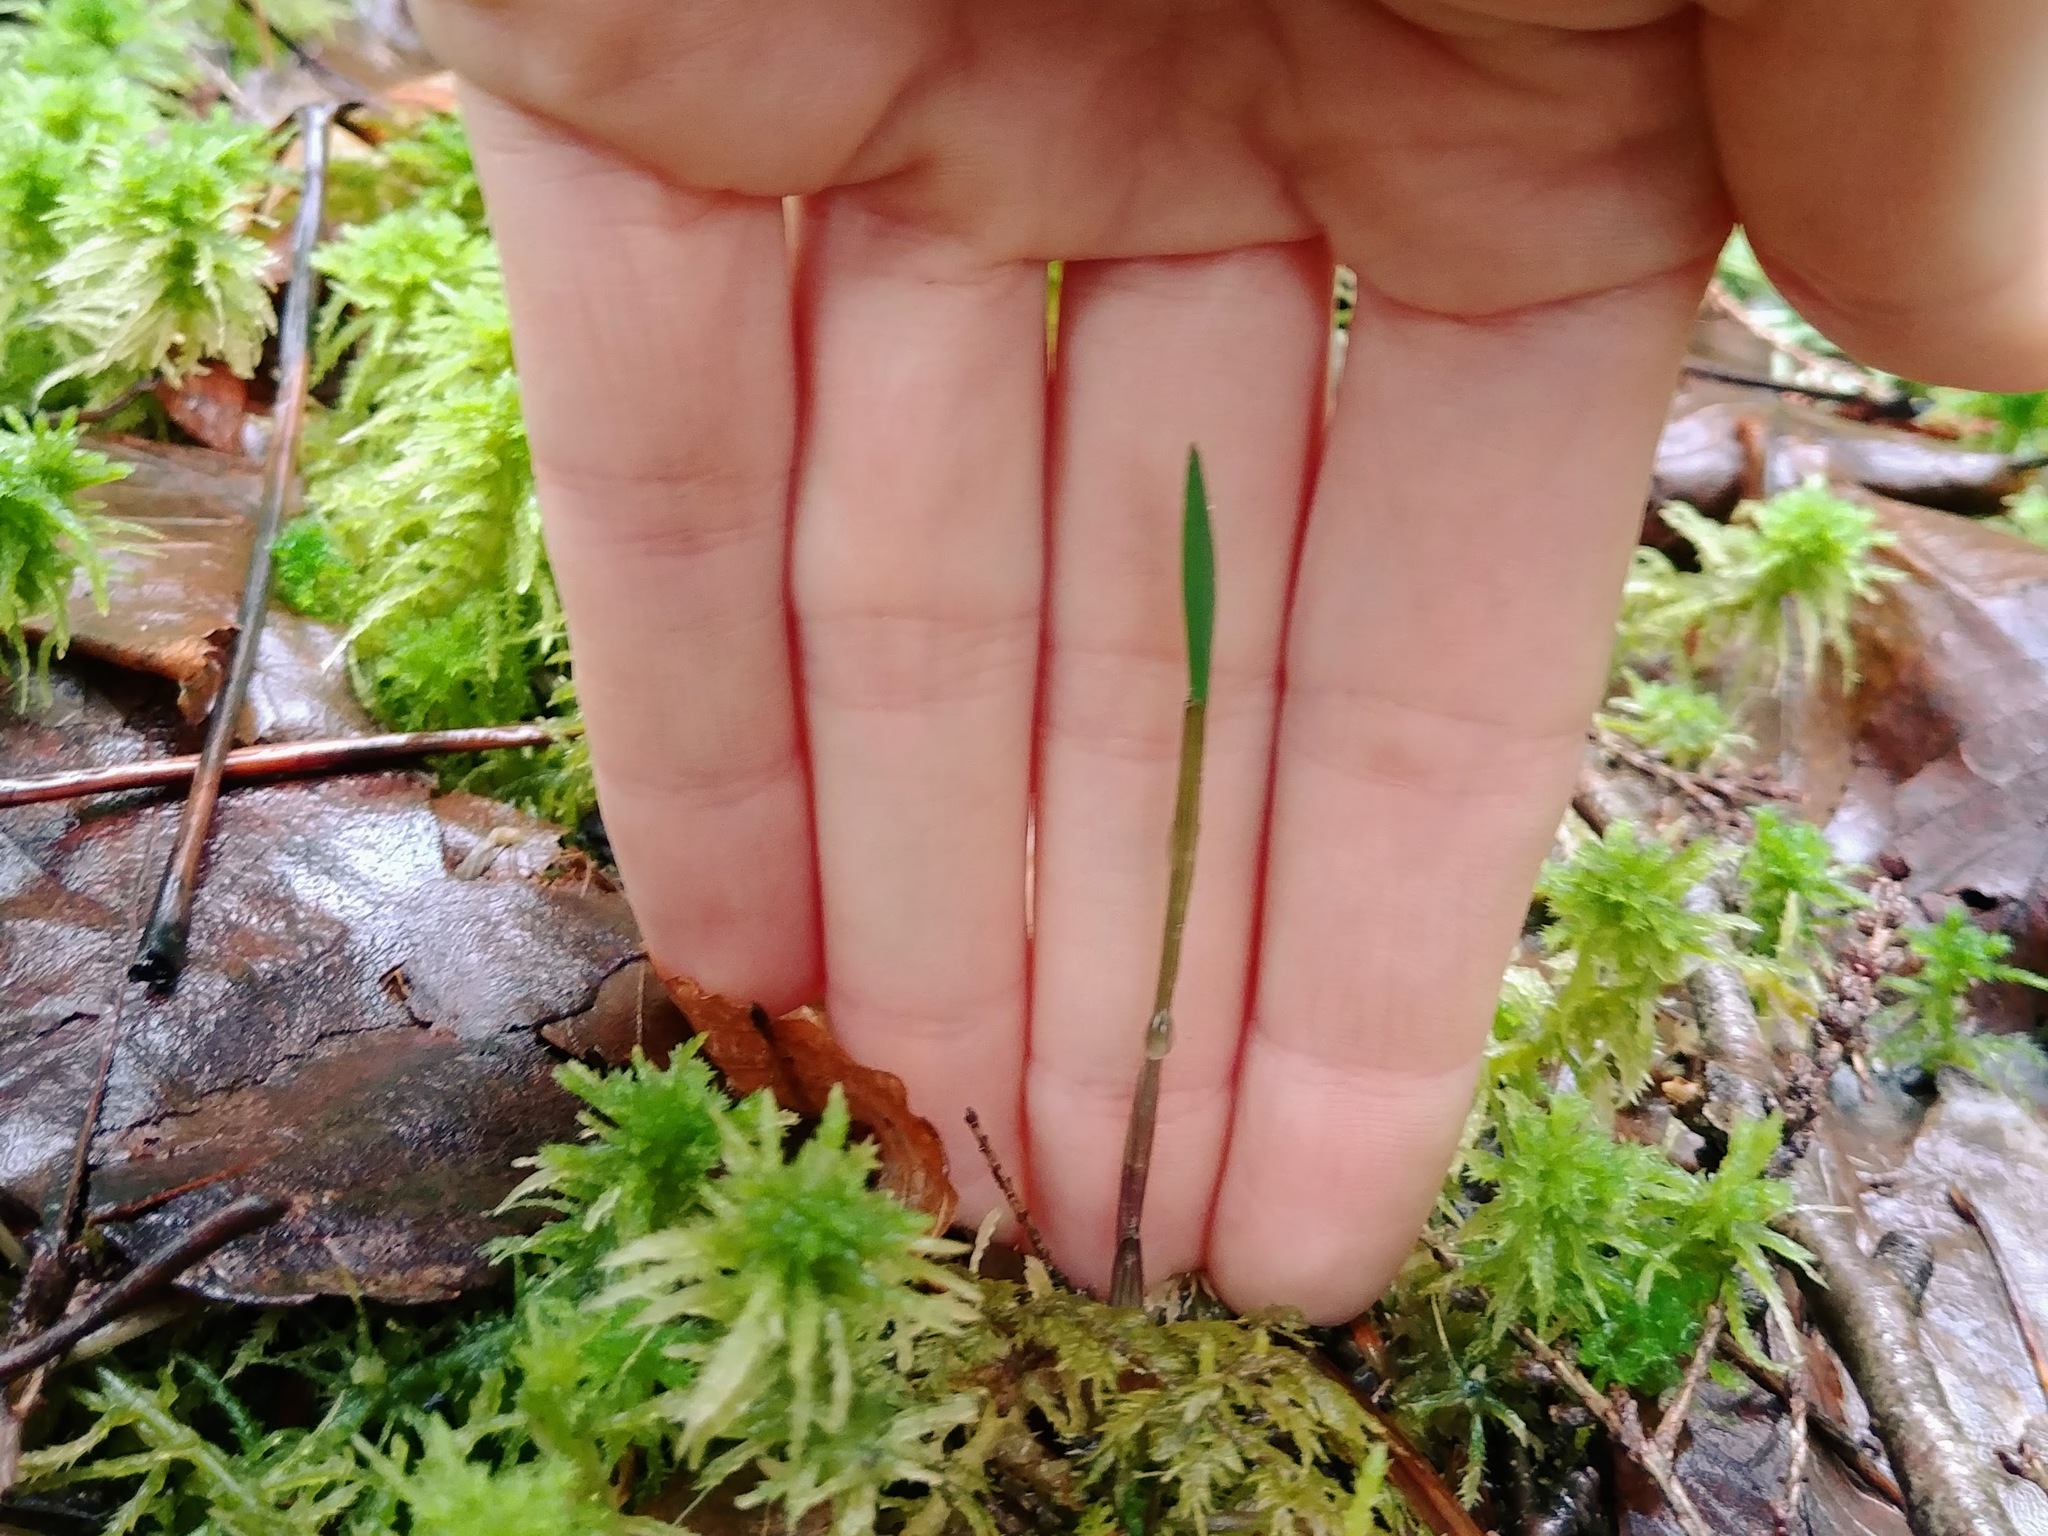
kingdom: Plantae
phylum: Tracheophyta
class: Liliopsida
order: Liliales
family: Colchicaceae
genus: Uvularia
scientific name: Uvularia sessilifolia
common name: Straw-lily
